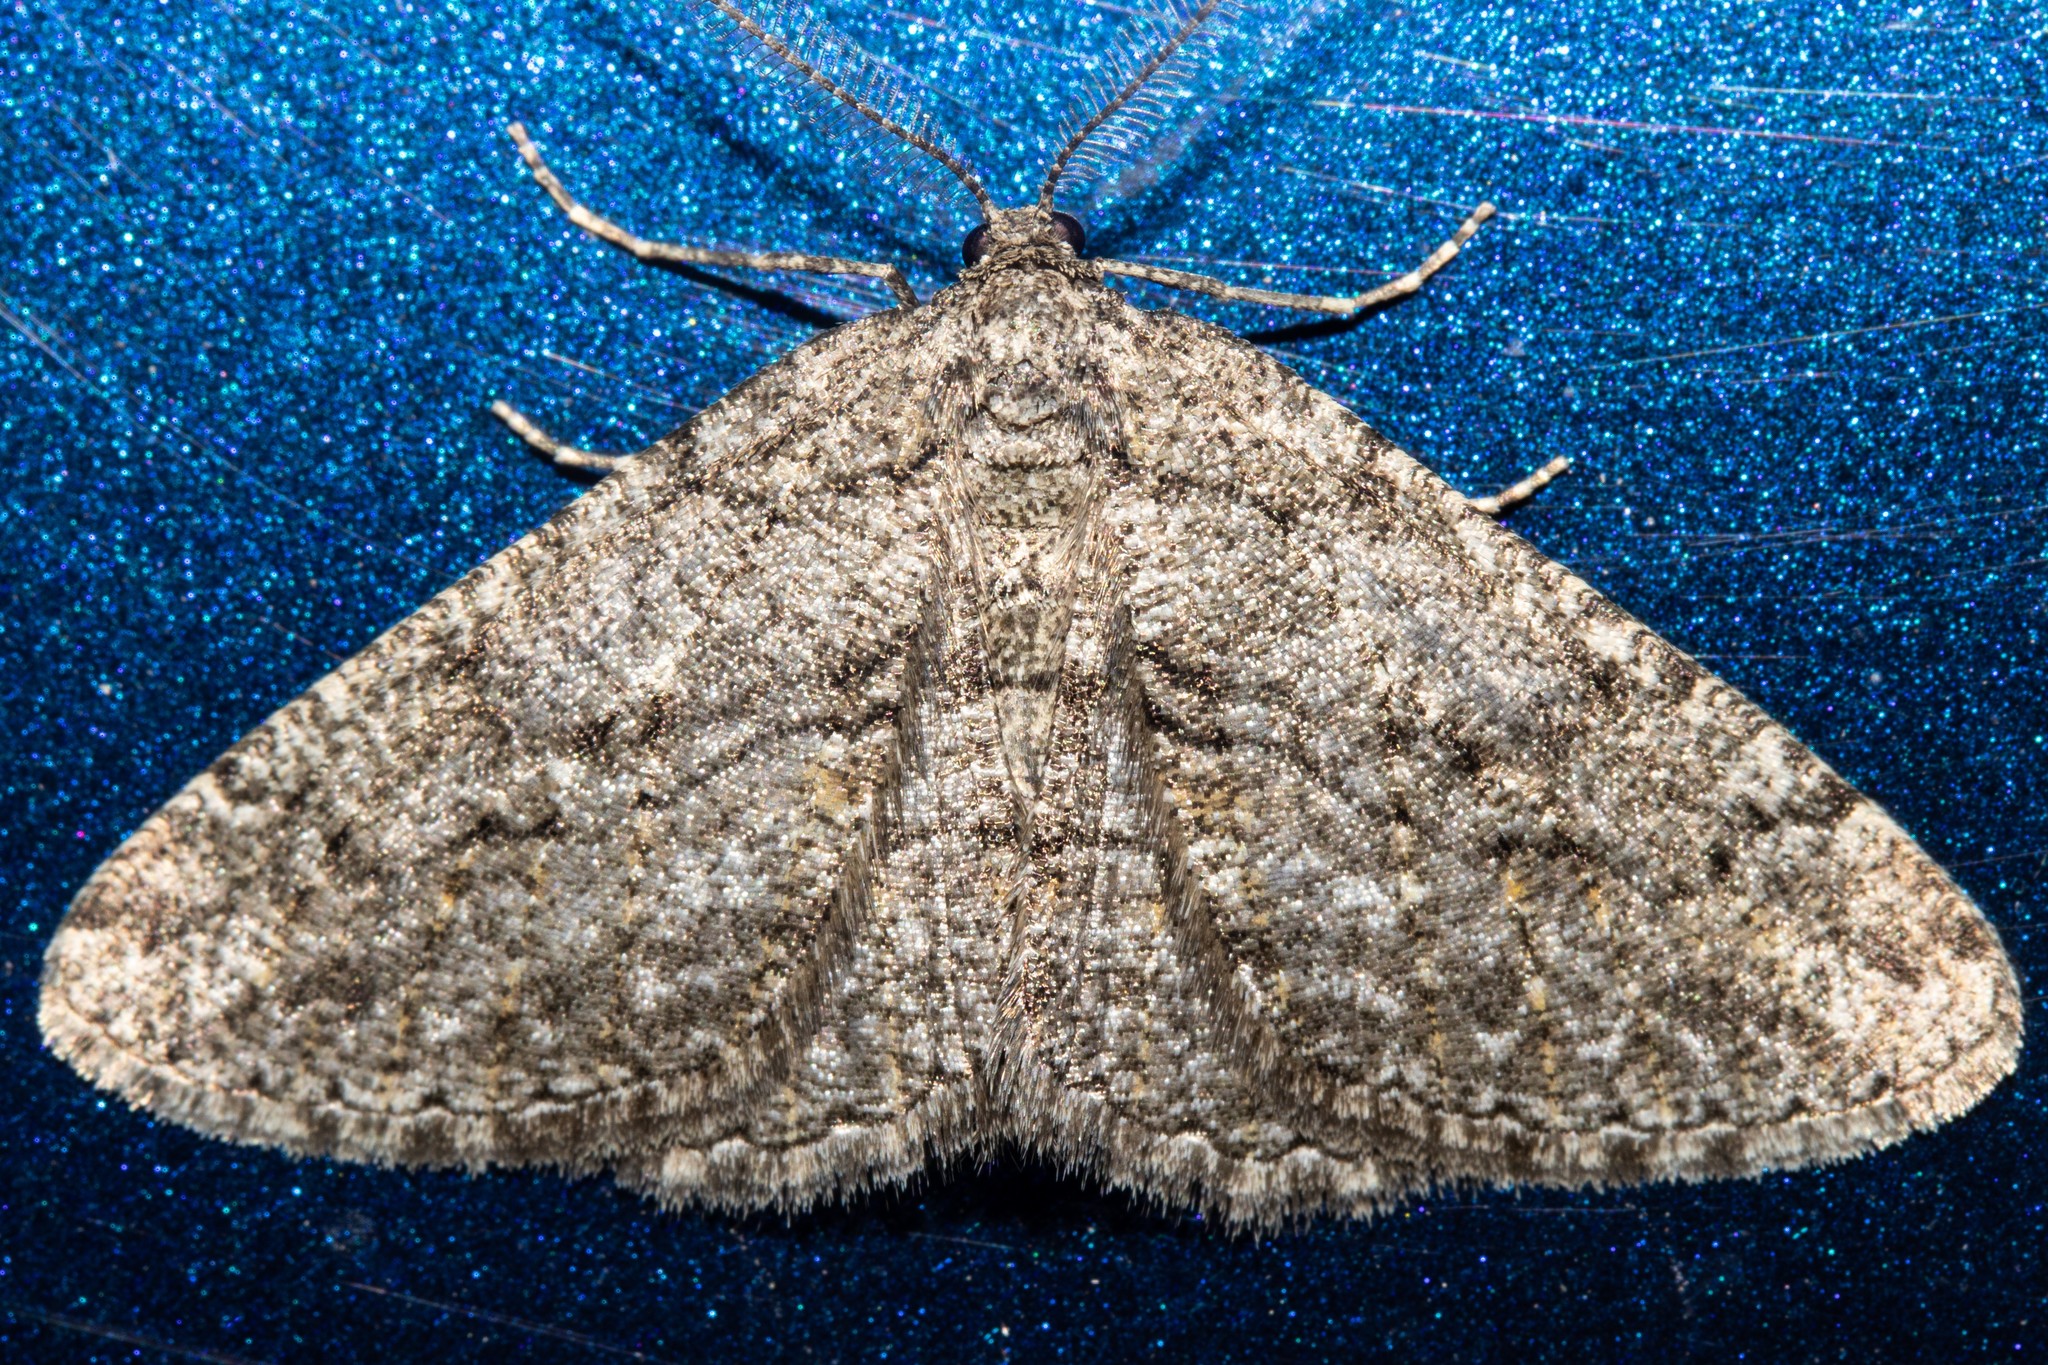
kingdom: Animalia
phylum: Arthropoda
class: Insecta
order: Lepidoptera
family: Geometridae
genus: Zermizinga
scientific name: Zermizinga indocilisaria
